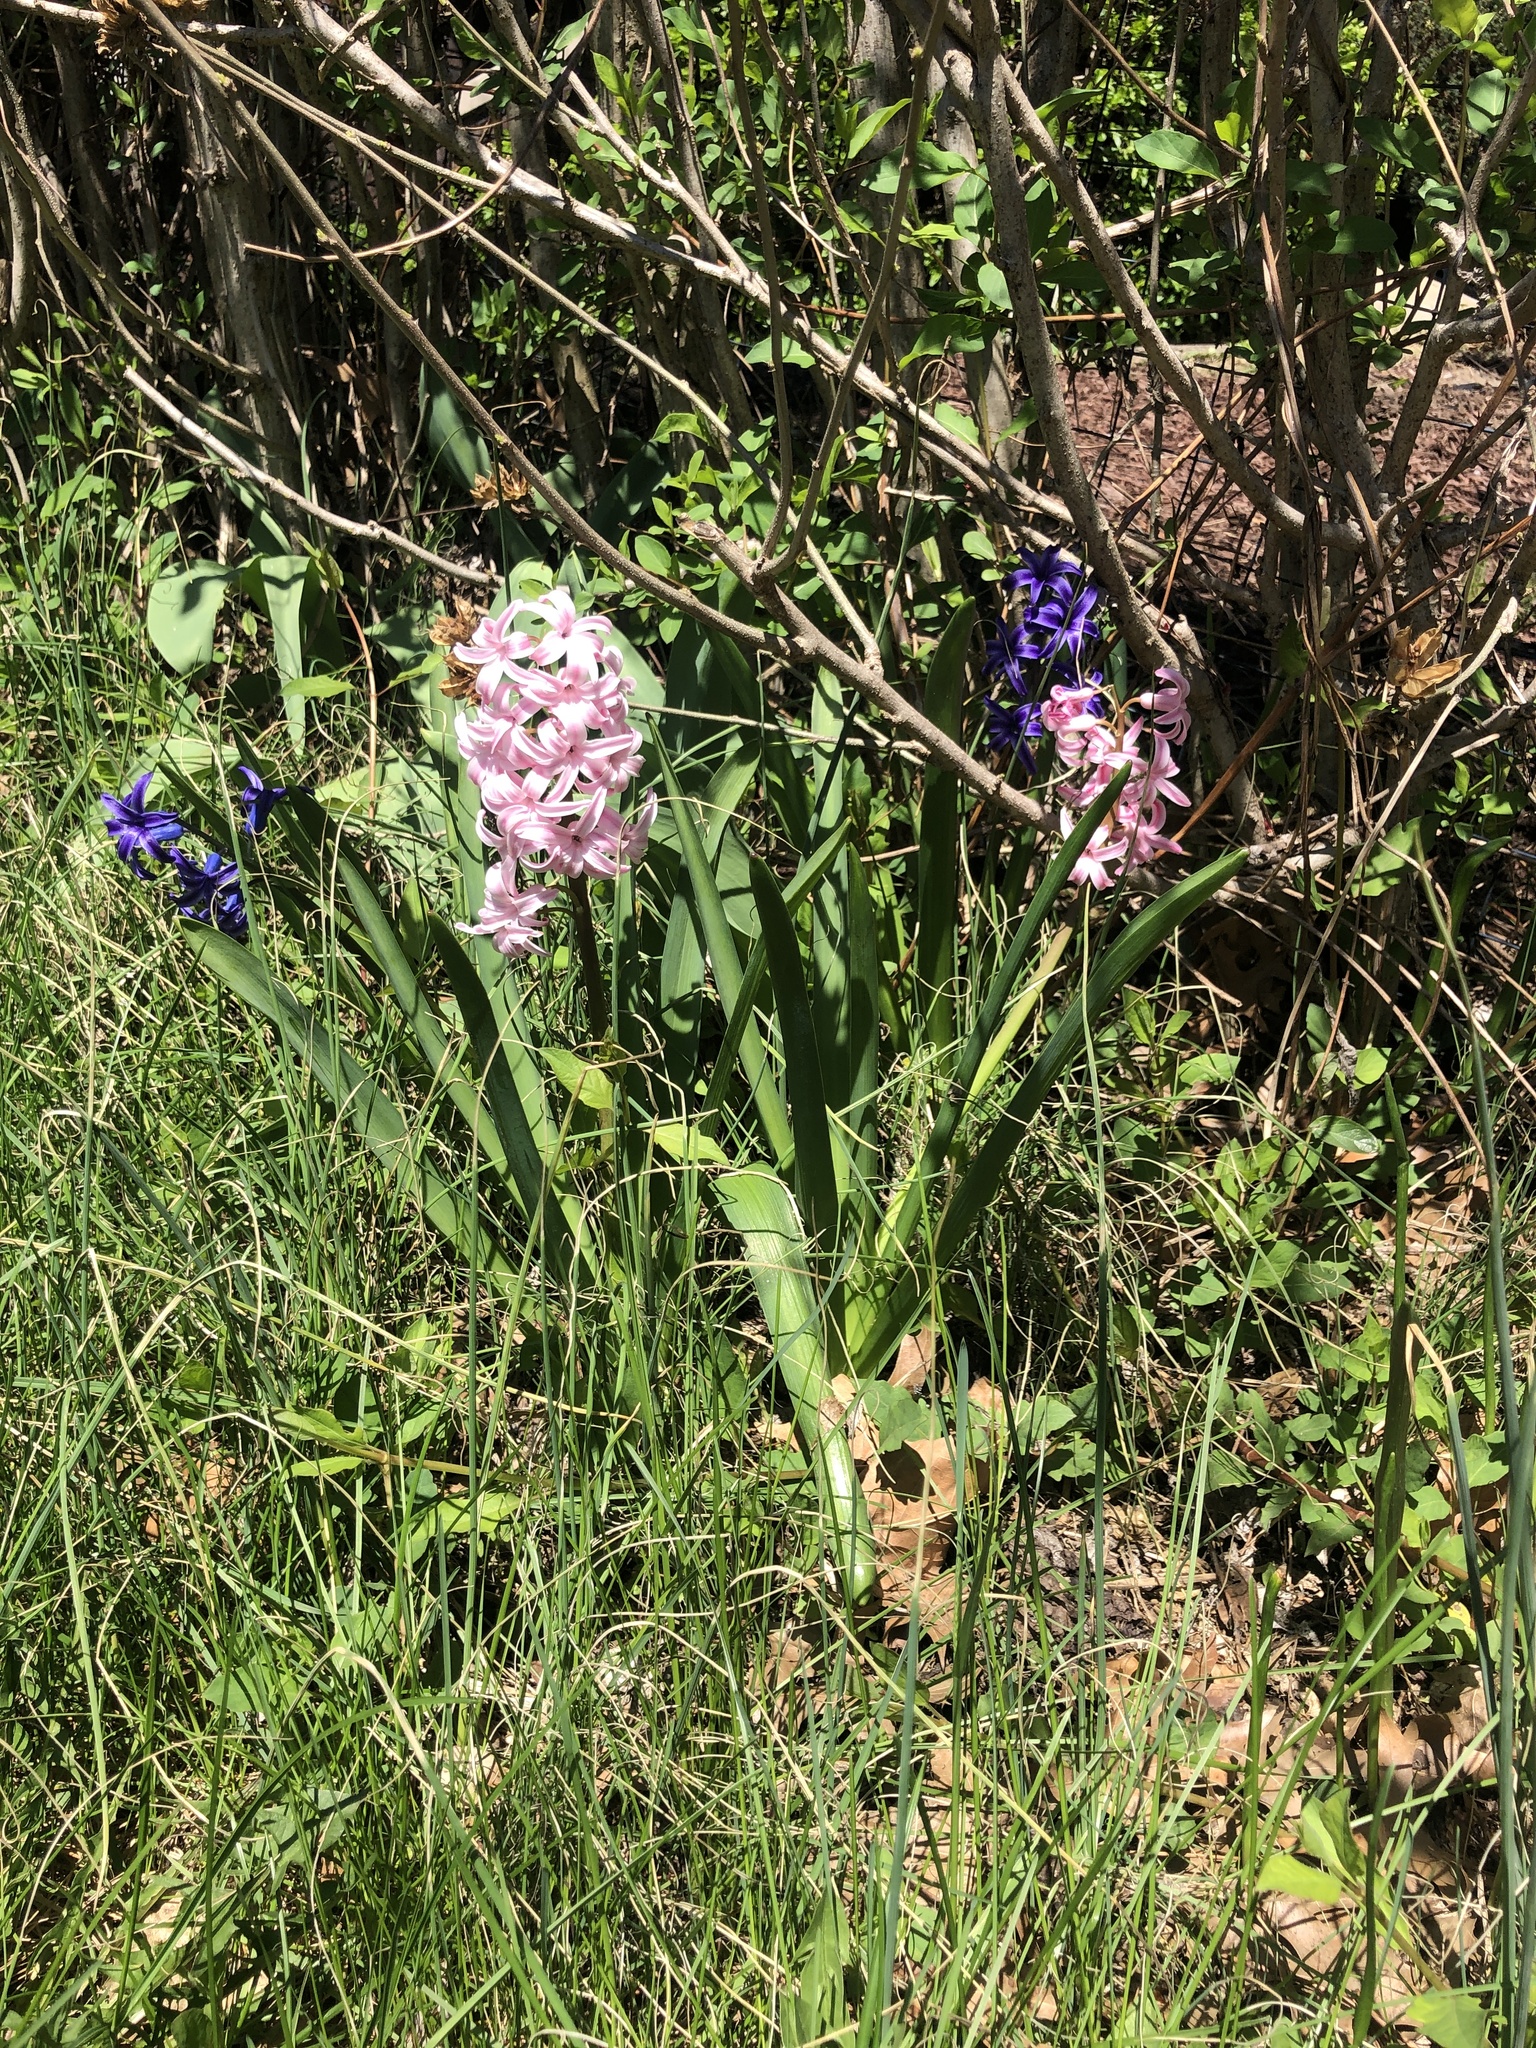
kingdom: Plantae
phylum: Tracheophyta
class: Liliopsida
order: Asparagales
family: Asparagaceae
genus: Hyacinthus
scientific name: Hyacinthus orientalis
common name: Hyacinth
